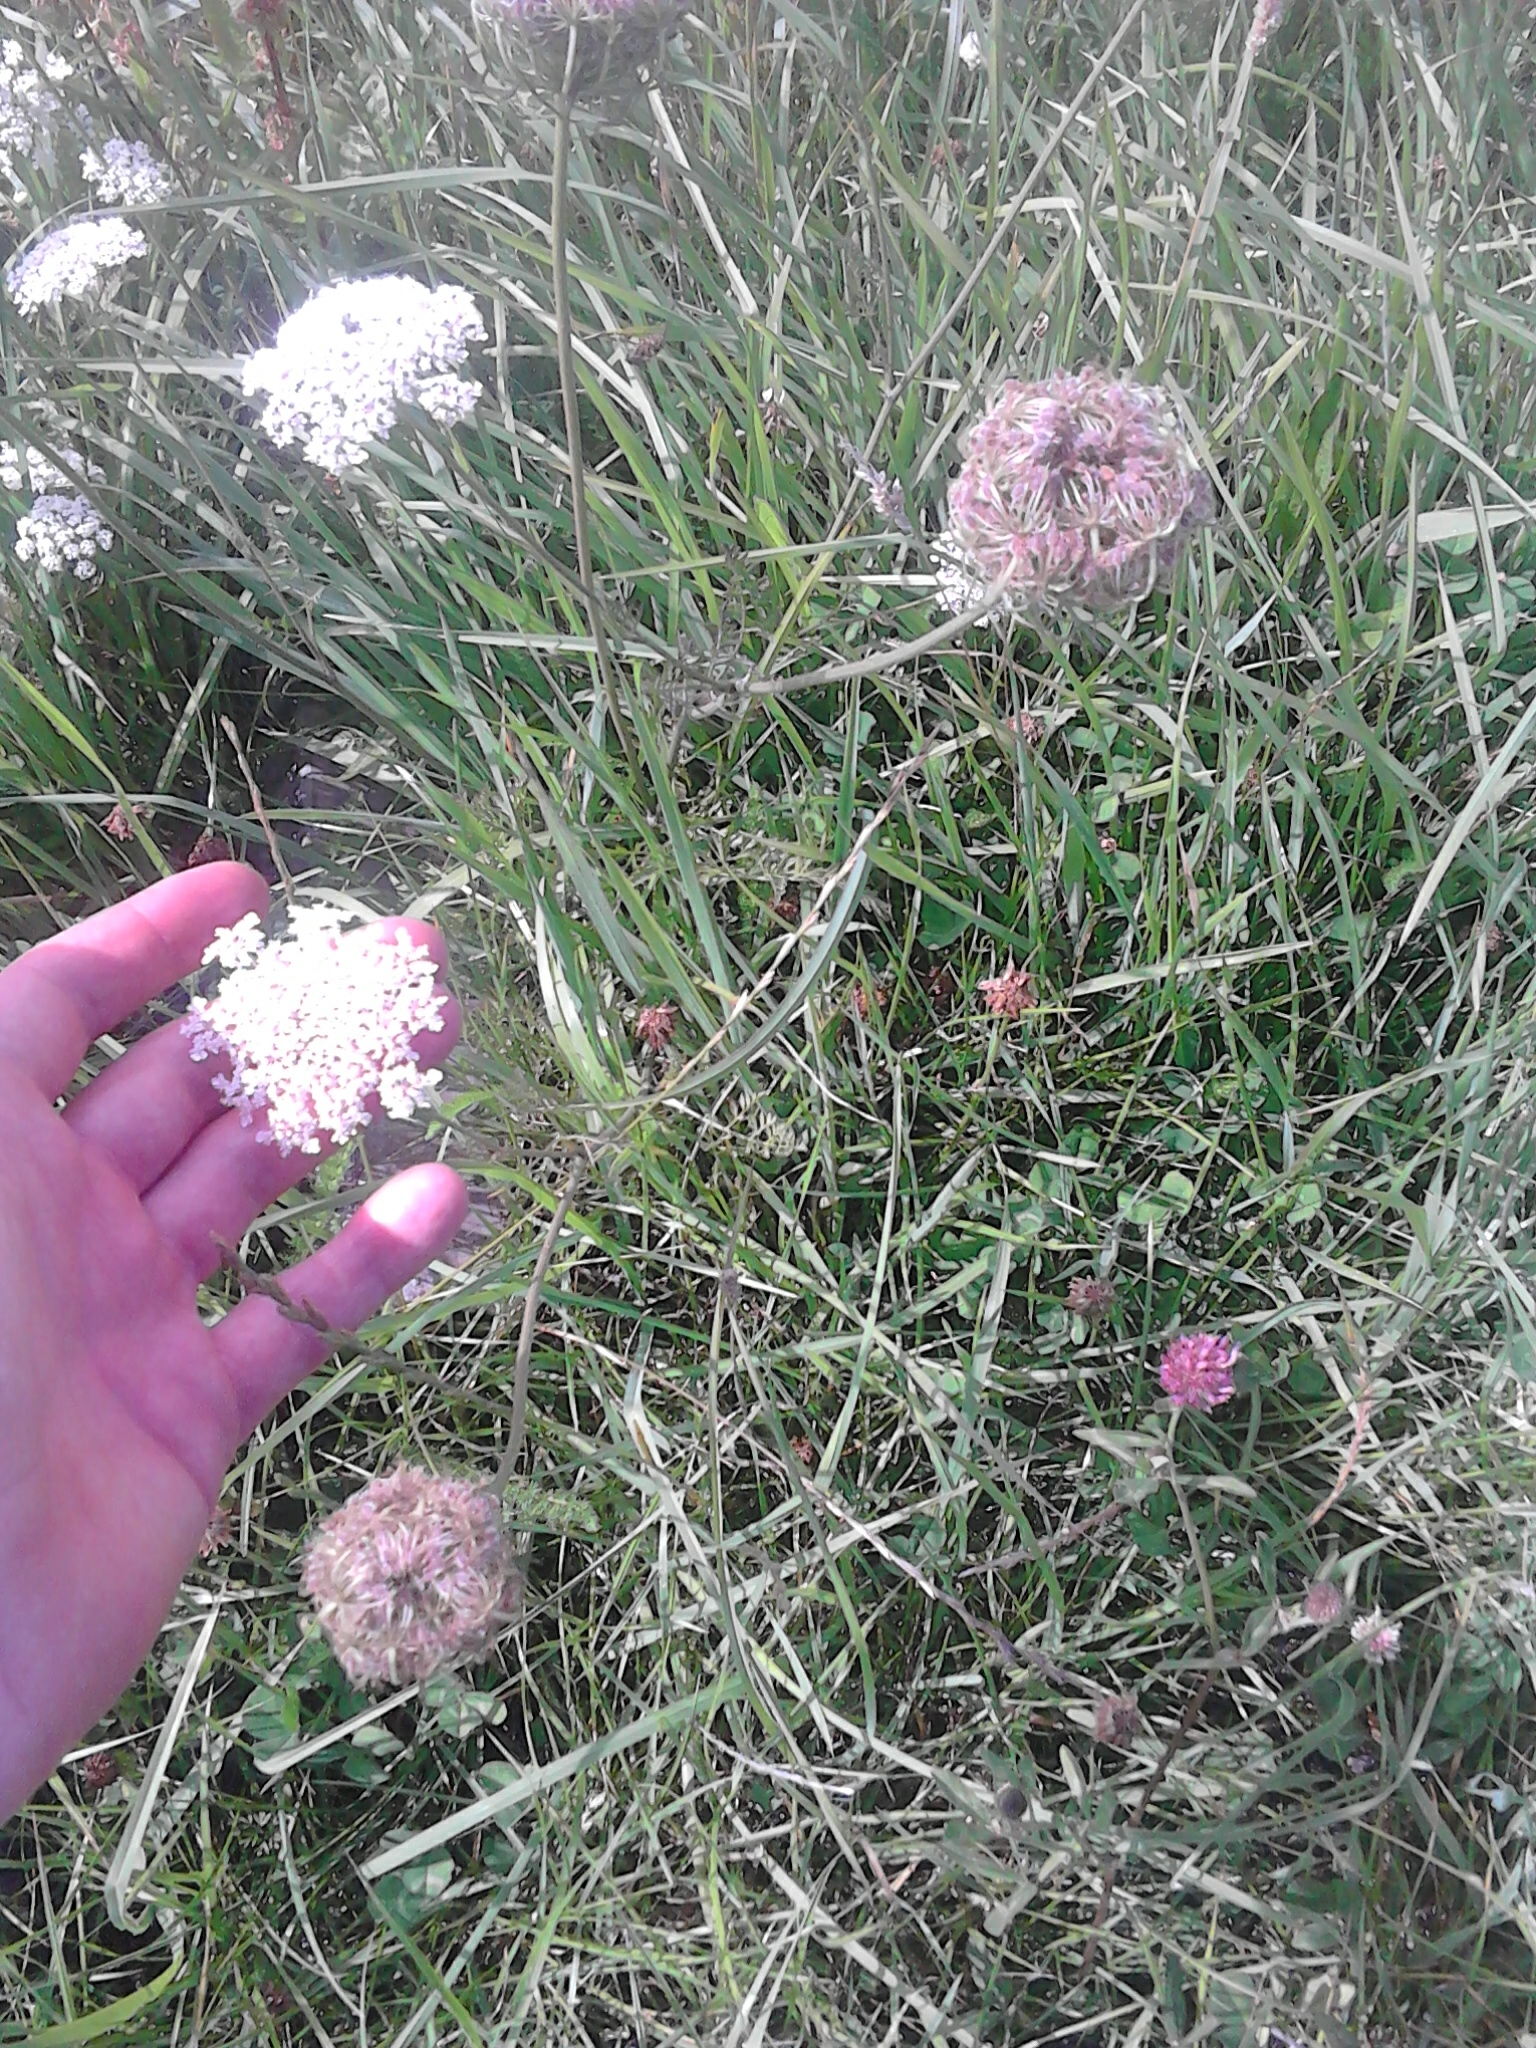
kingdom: Plantae
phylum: Tracheophyta
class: Magnoliopsida
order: Apiales
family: Apiaceae
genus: Daucus
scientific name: Daucus carota
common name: Wild carrot
